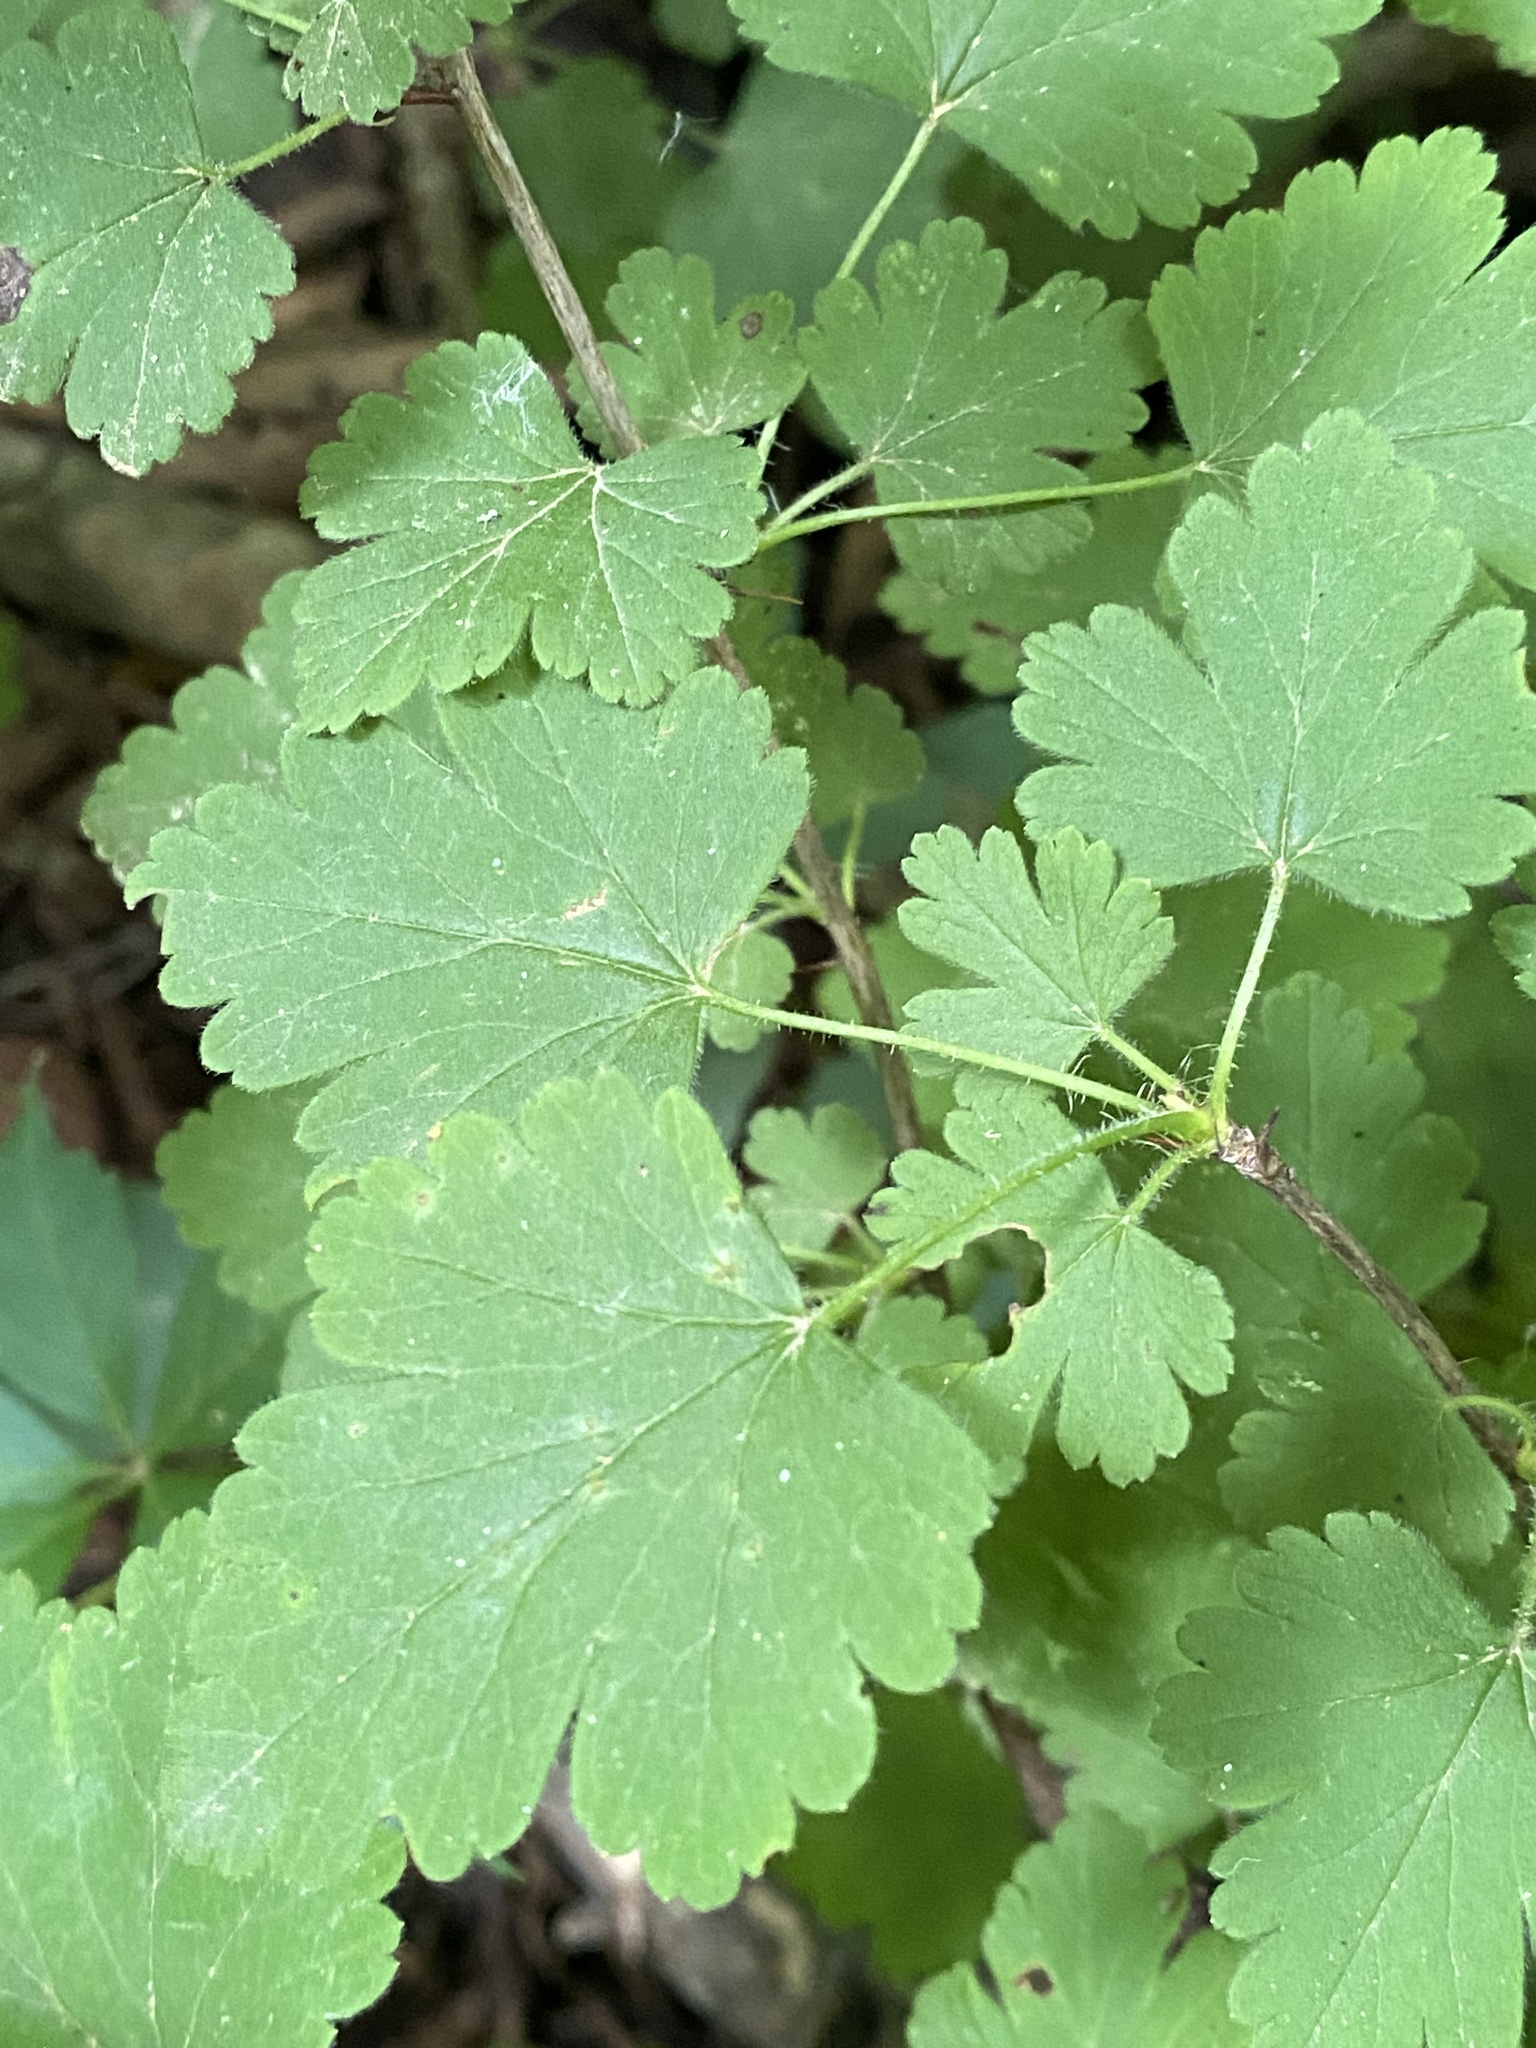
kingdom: Plantae
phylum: Tracheophyta
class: Magnoliopsida
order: Saxifragales
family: Grossulariaceae
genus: Ribes
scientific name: Ribes cynosbati
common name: American gooseberry
